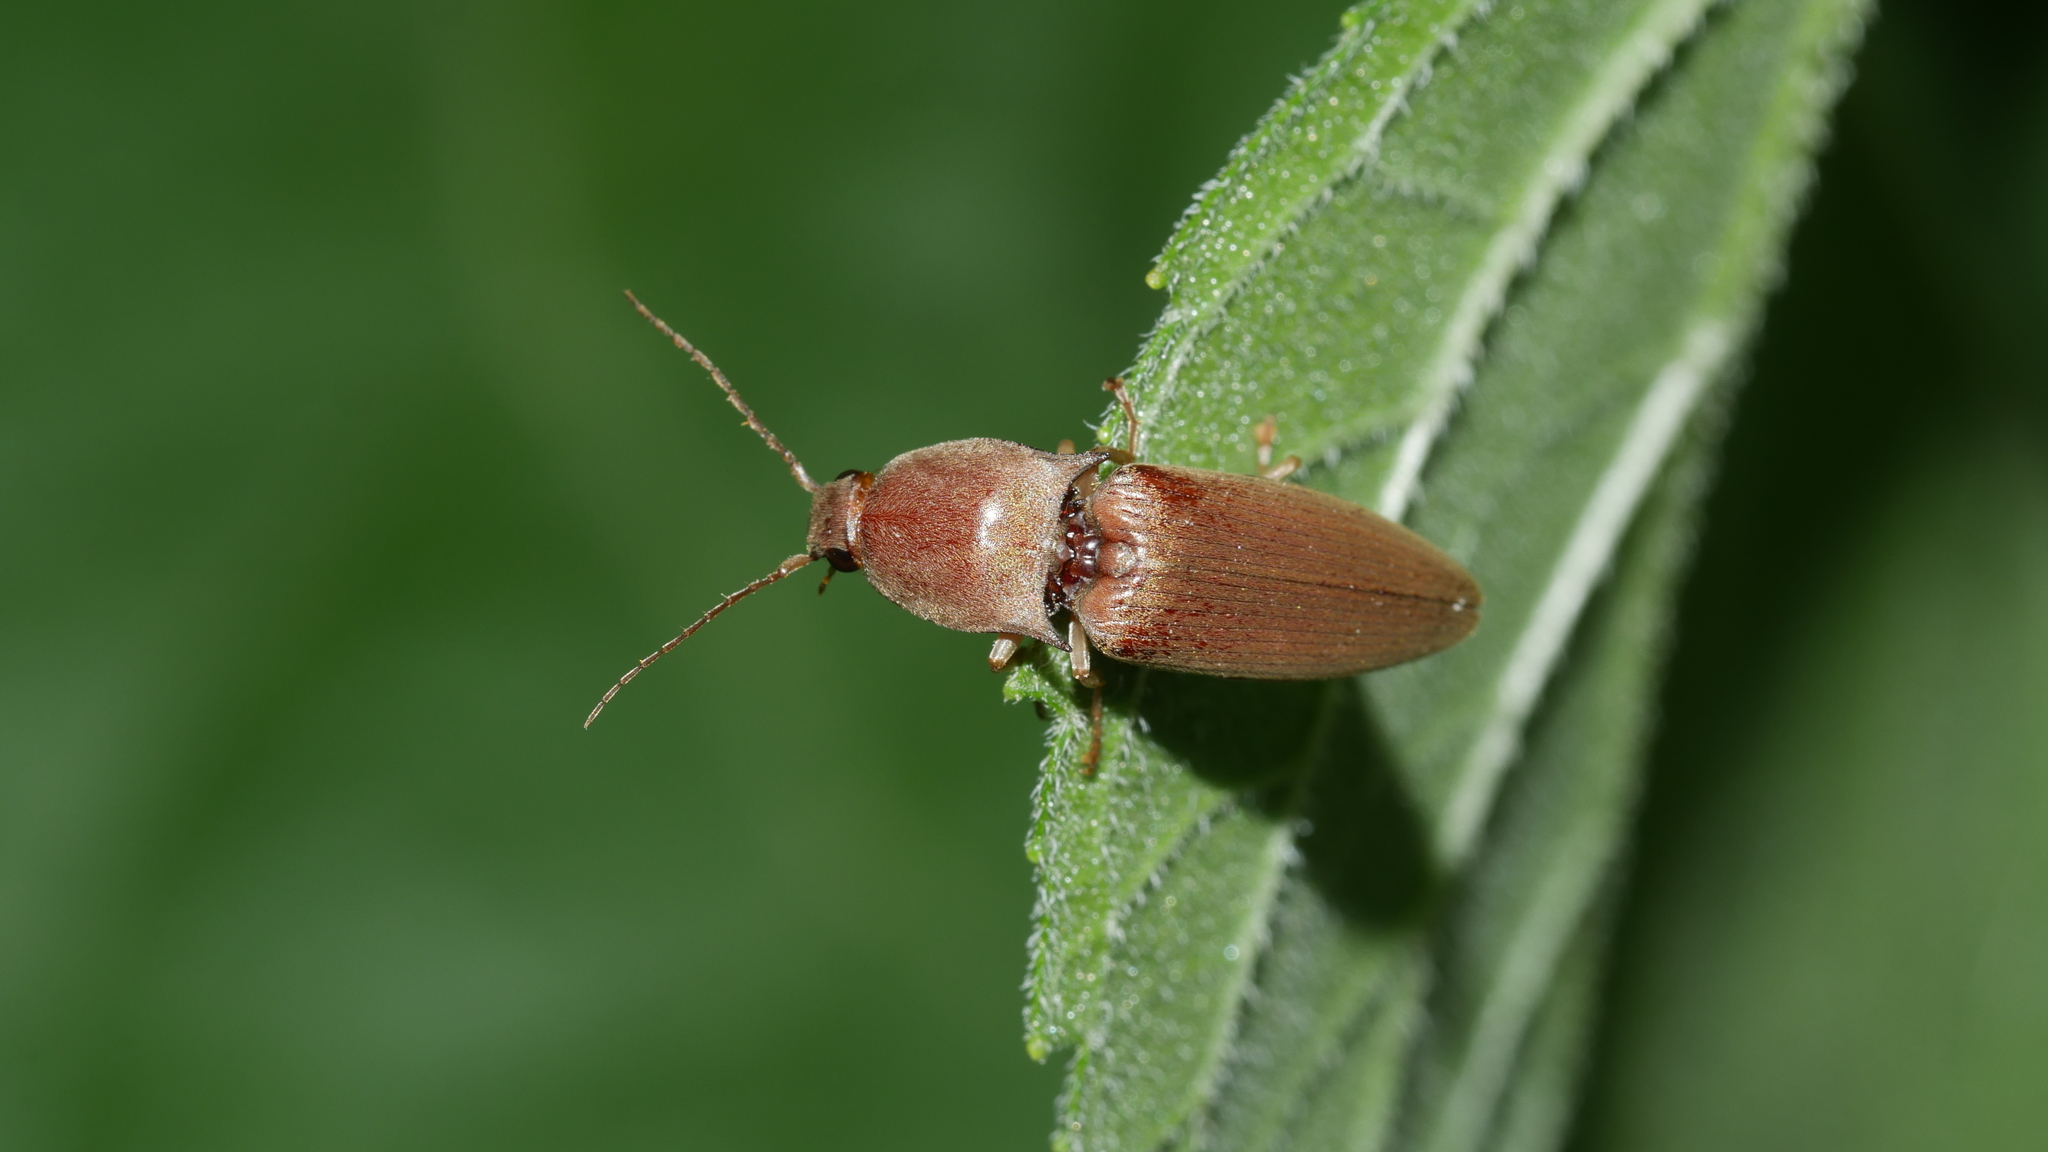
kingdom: Animalia
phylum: Arthropoda
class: Insecta
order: Coleoptera
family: Elateridae
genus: Monocrepidius
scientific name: Monocrepidius lividus
